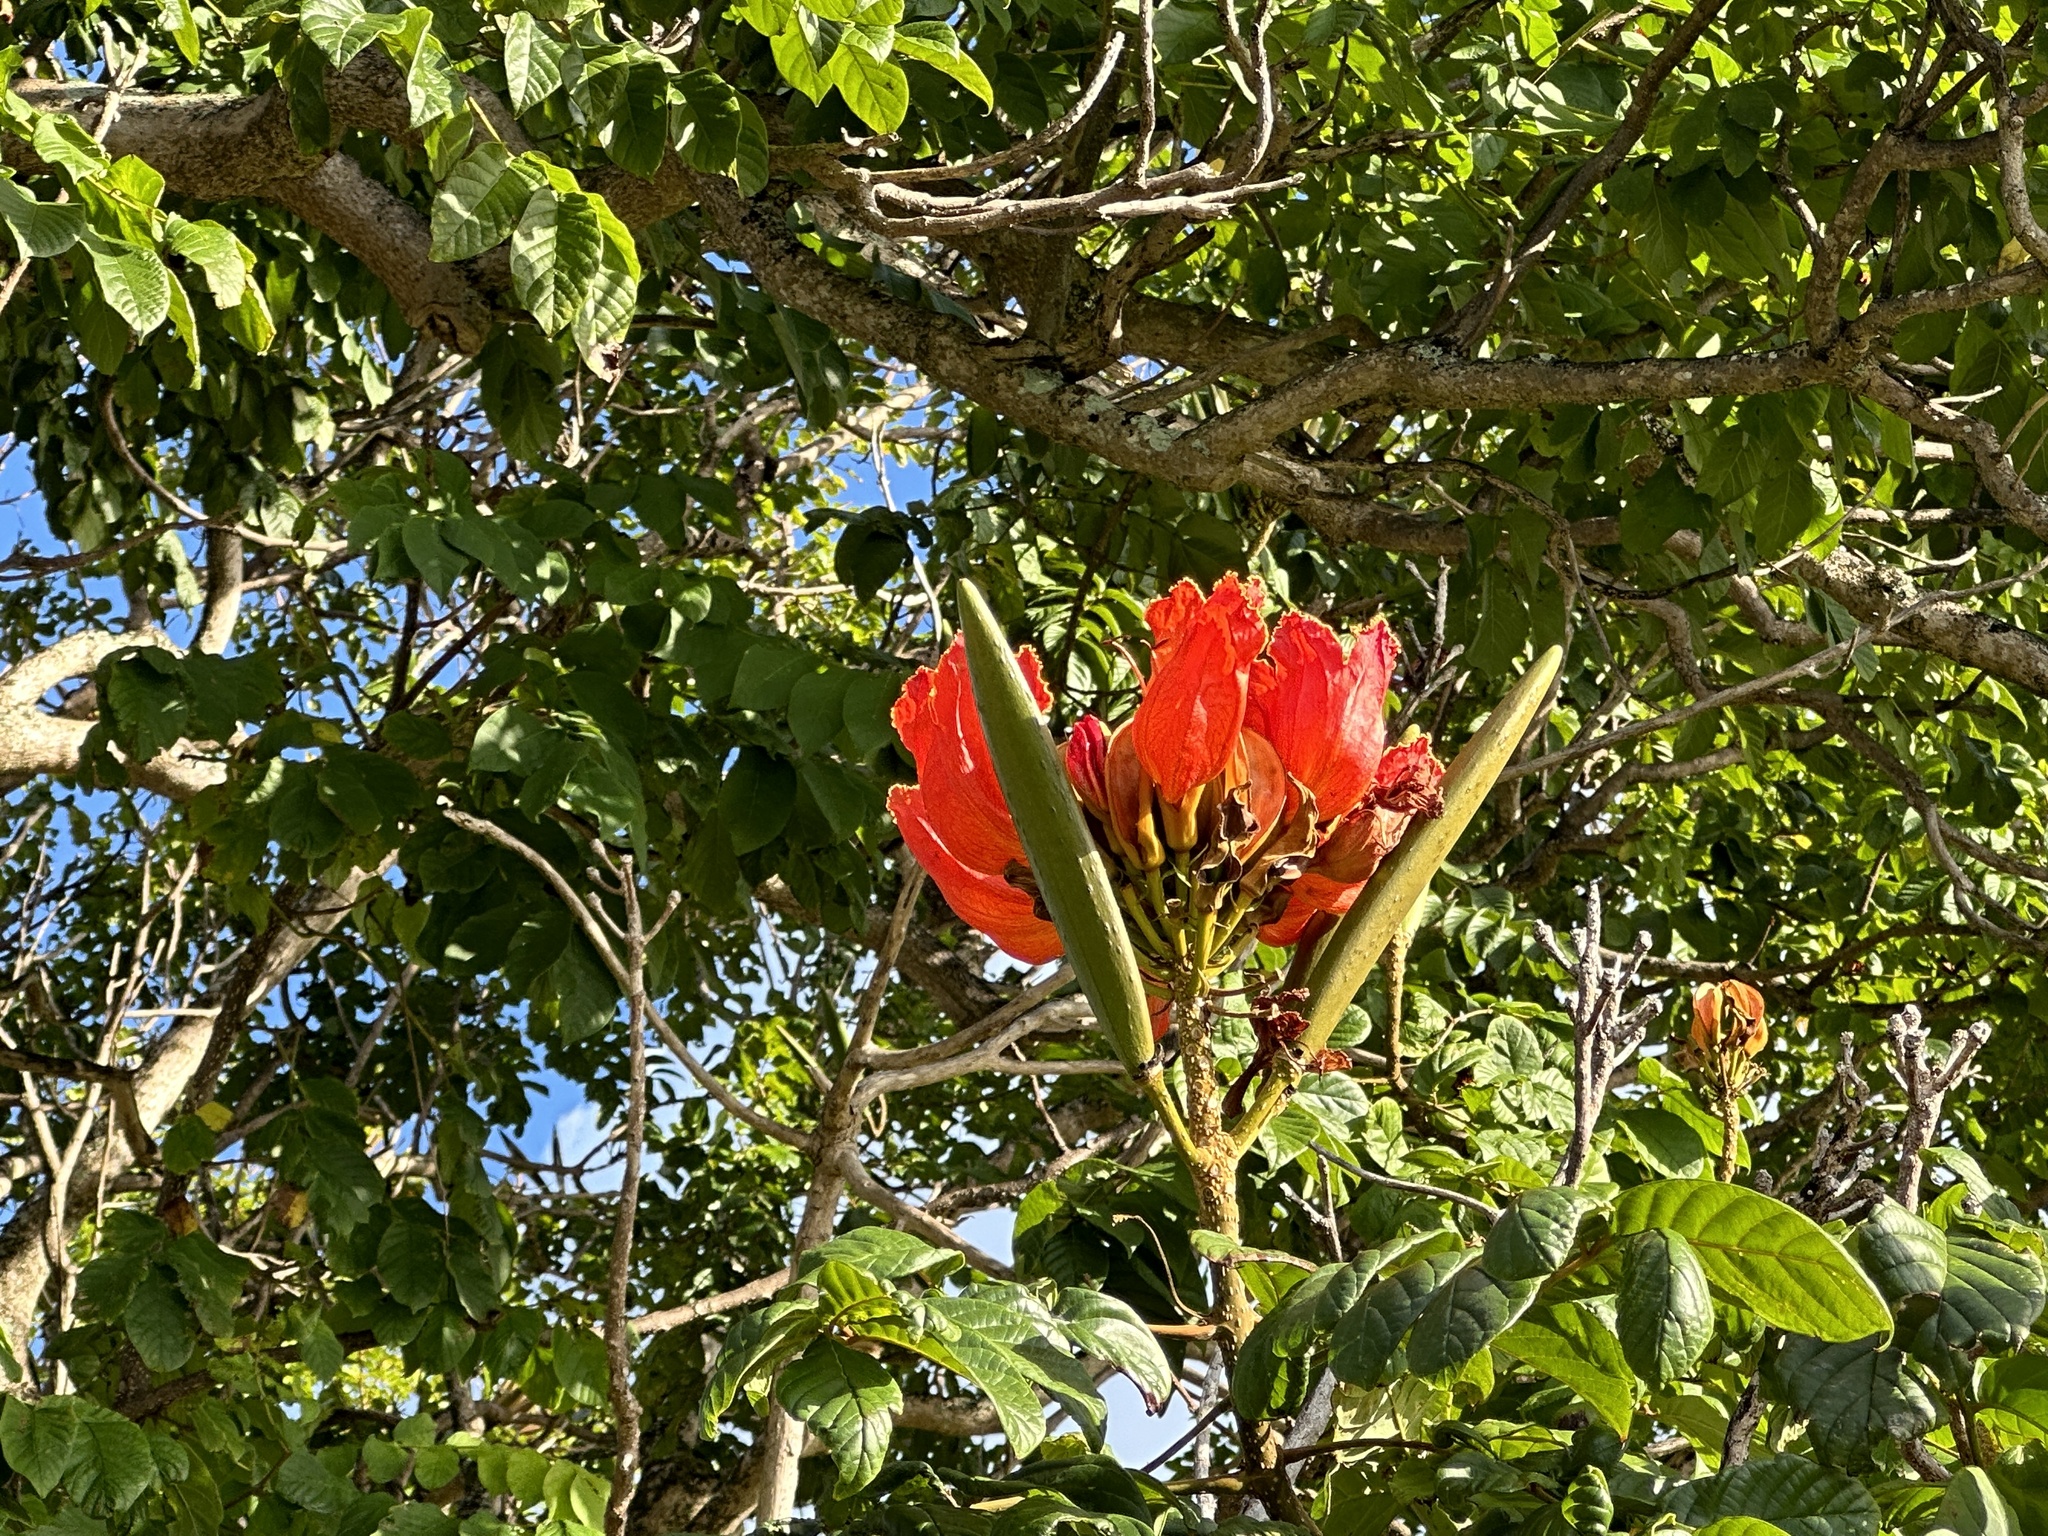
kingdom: Plantae
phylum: Tracheophyta
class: Magnoliopsida
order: Lamiales
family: Bignoniaceae
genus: Spathodea
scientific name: Spathodea campanulata
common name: African tuliptree
